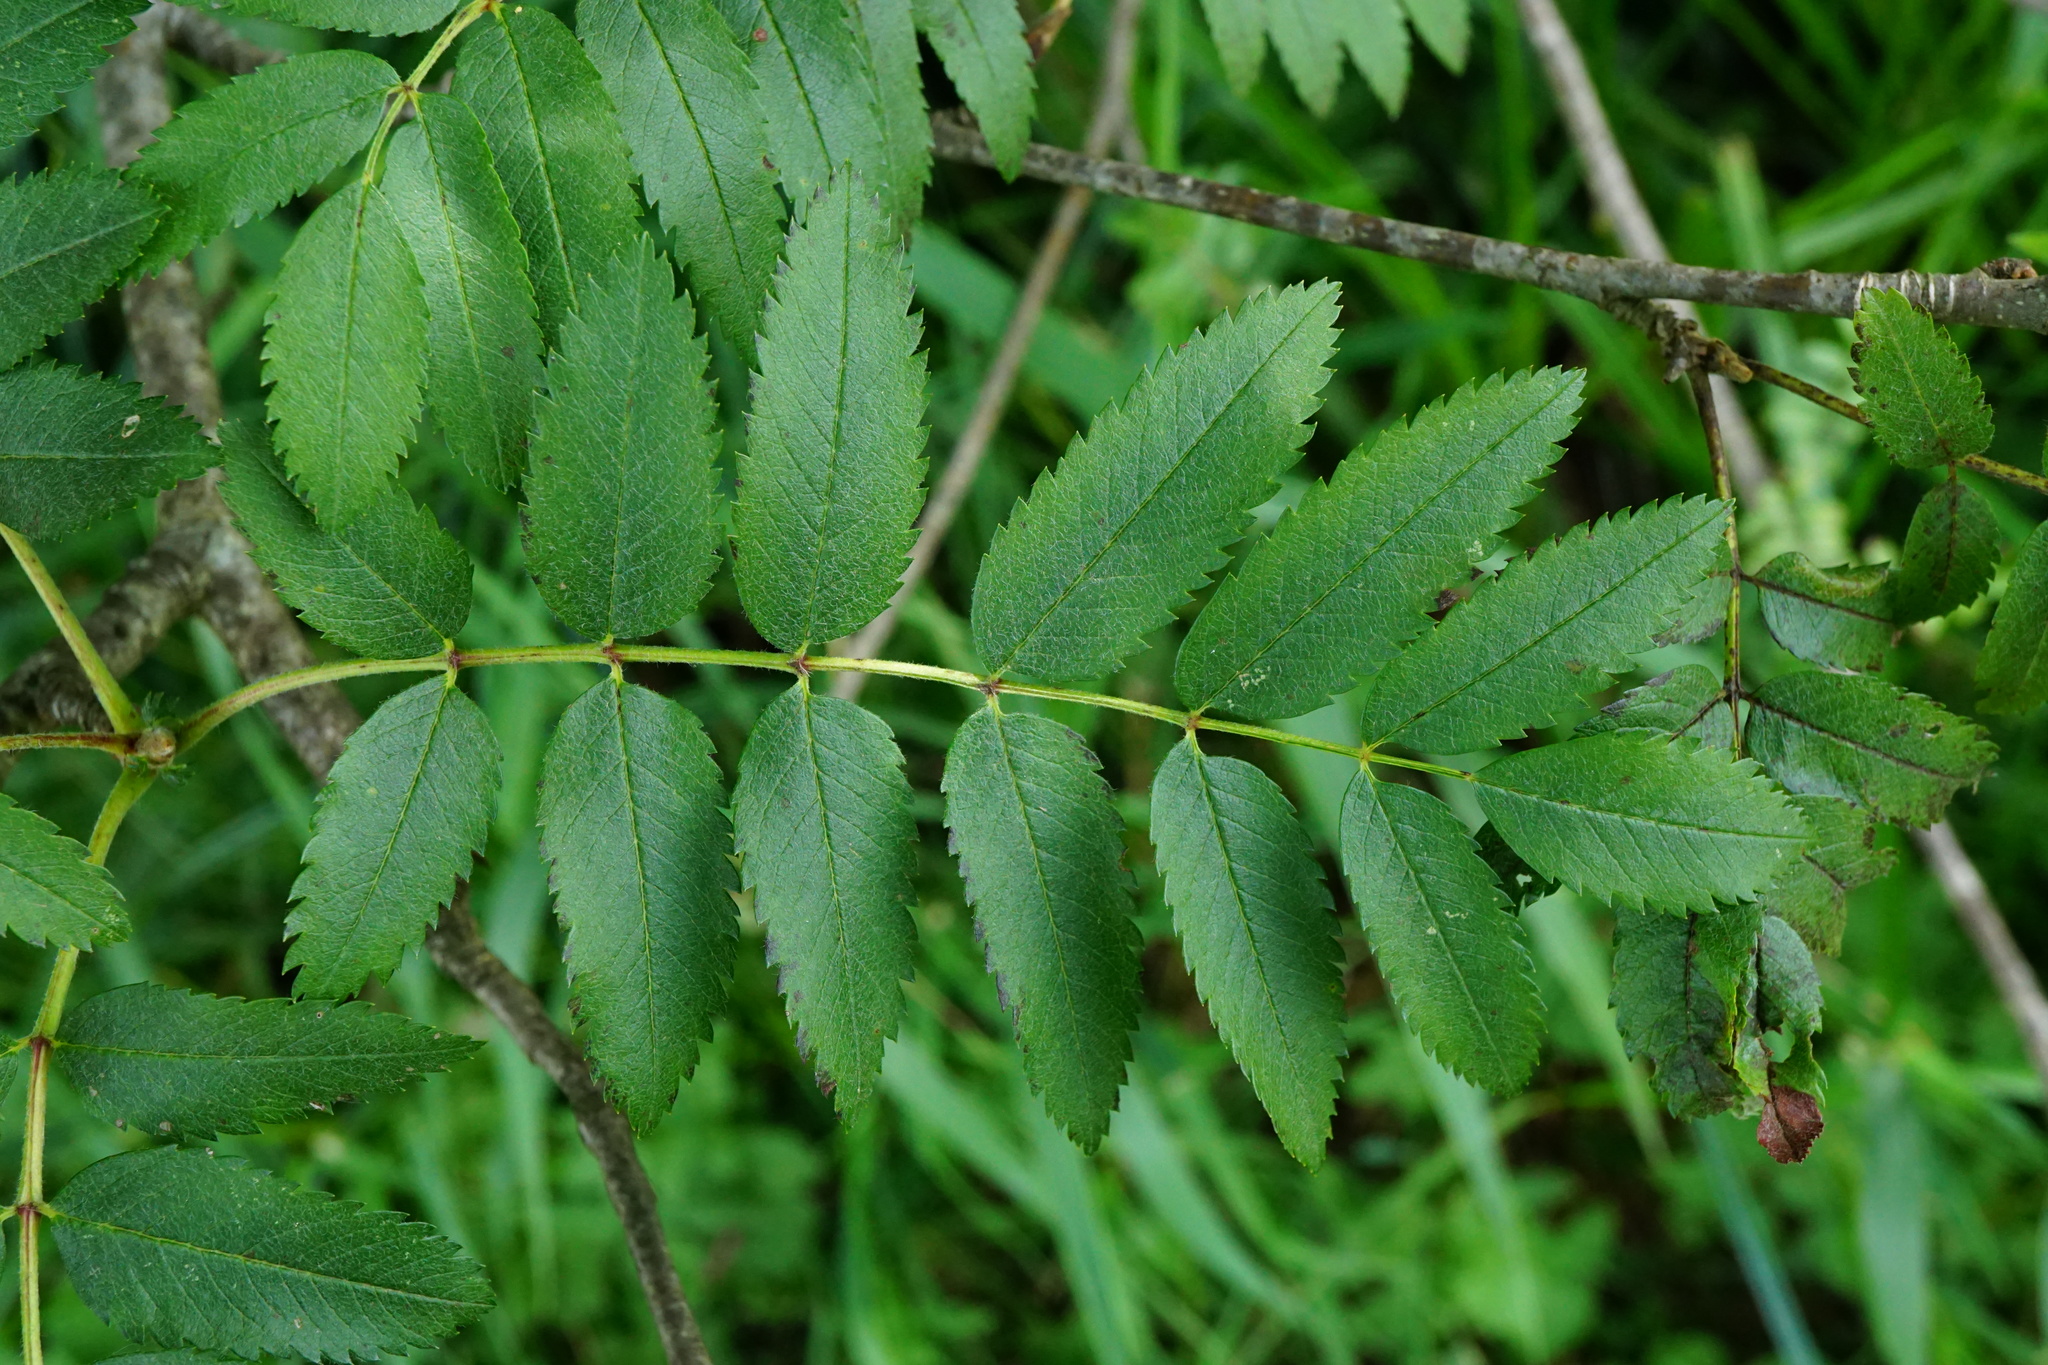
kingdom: Plantae
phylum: Tracheophyta
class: Magnoliopsida
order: Rosales
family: Rosaceae
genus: Sorbus
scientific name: Sorbus aucuparia
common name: Rowan
